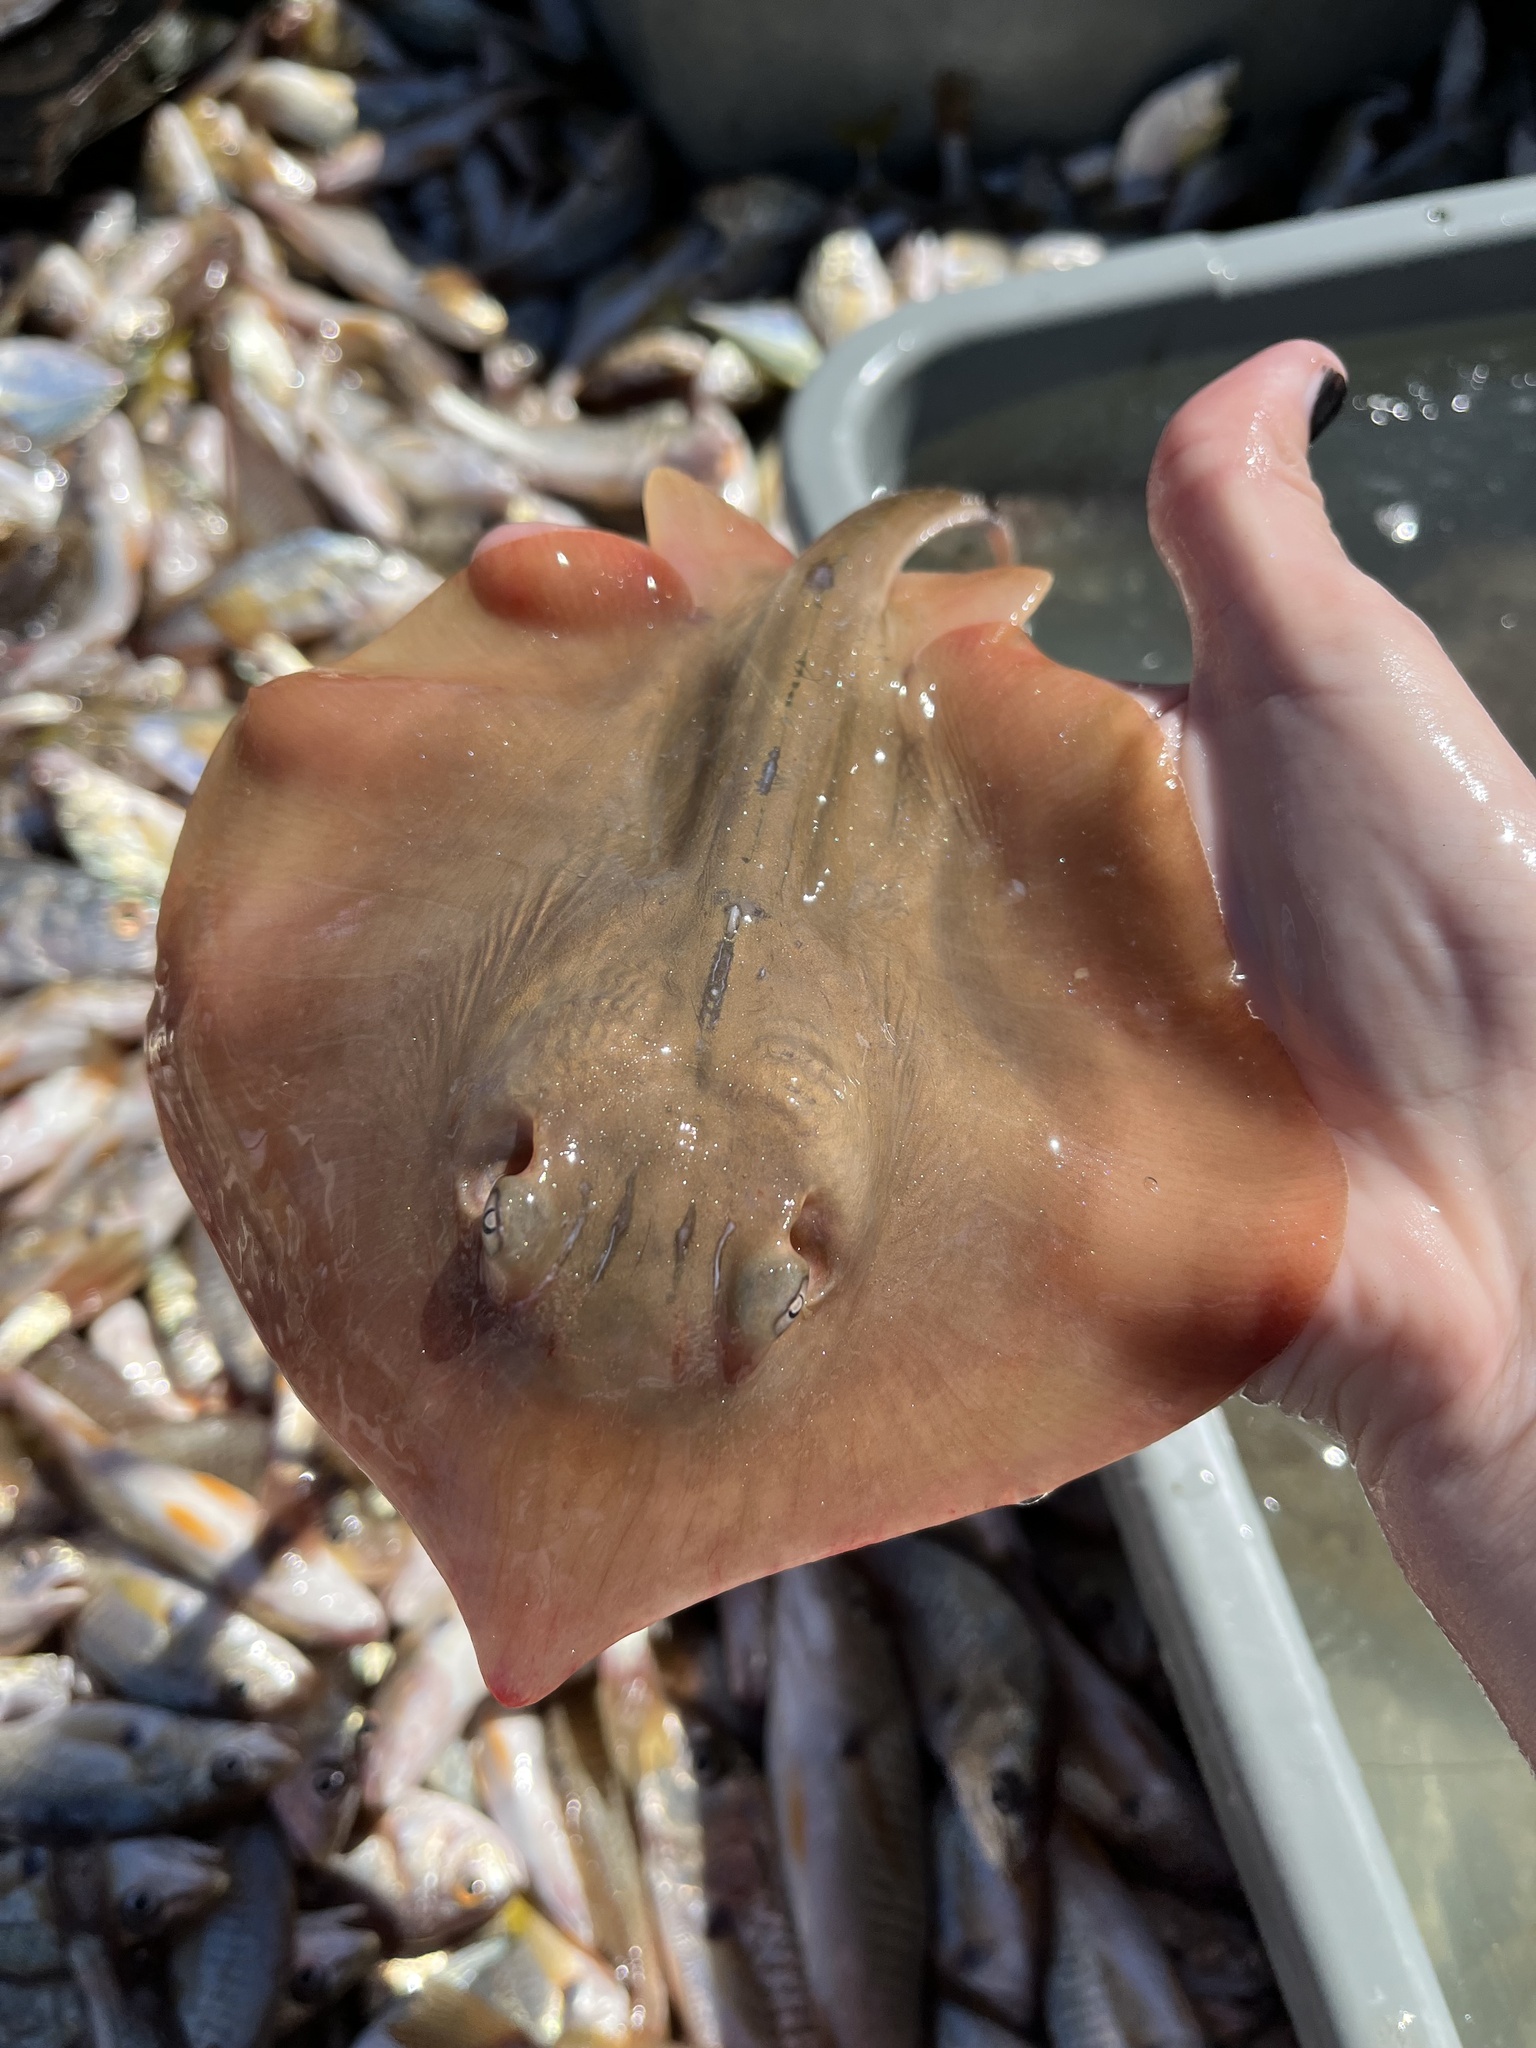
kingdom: Animalia
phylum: Chordata
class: Elasmobranchii
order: Myliobatiformes
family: Dasyatidae
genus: Hypanus
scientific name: Hypanus sabinus
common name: Atlantic stingray
